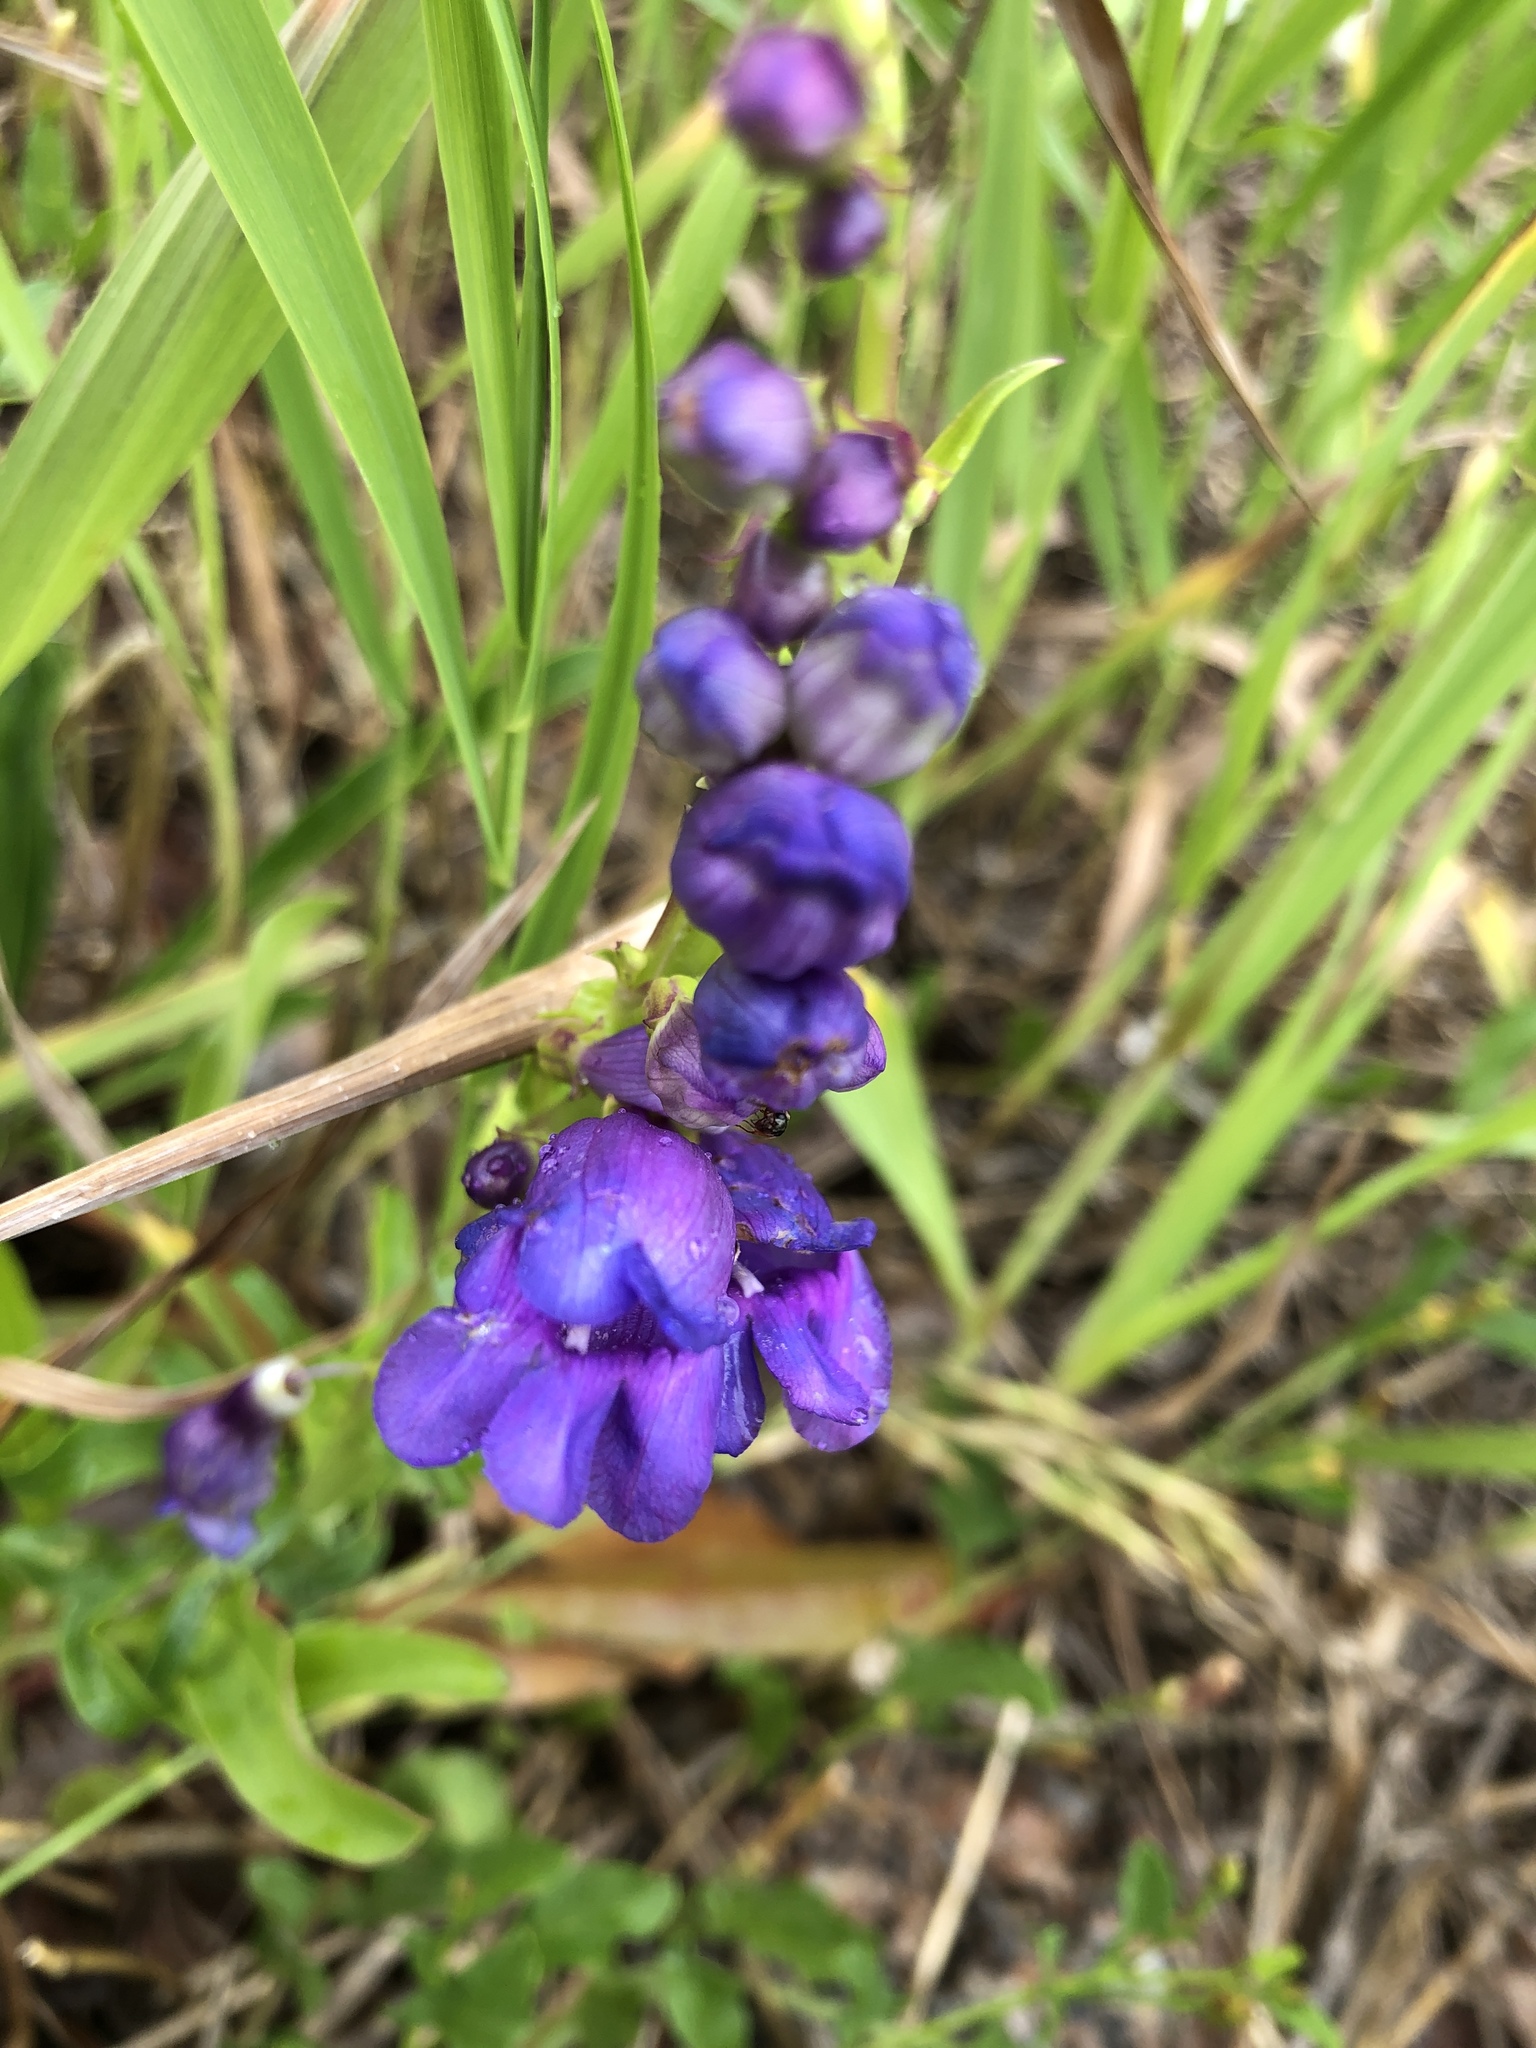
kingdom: Plantae
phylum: Tracheophyta
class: Magnoliopsida
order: Lamiales
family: Plantaginaceae
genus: Penstemon
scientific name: Penstemon strictus
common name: Rocky mountain penstemon
